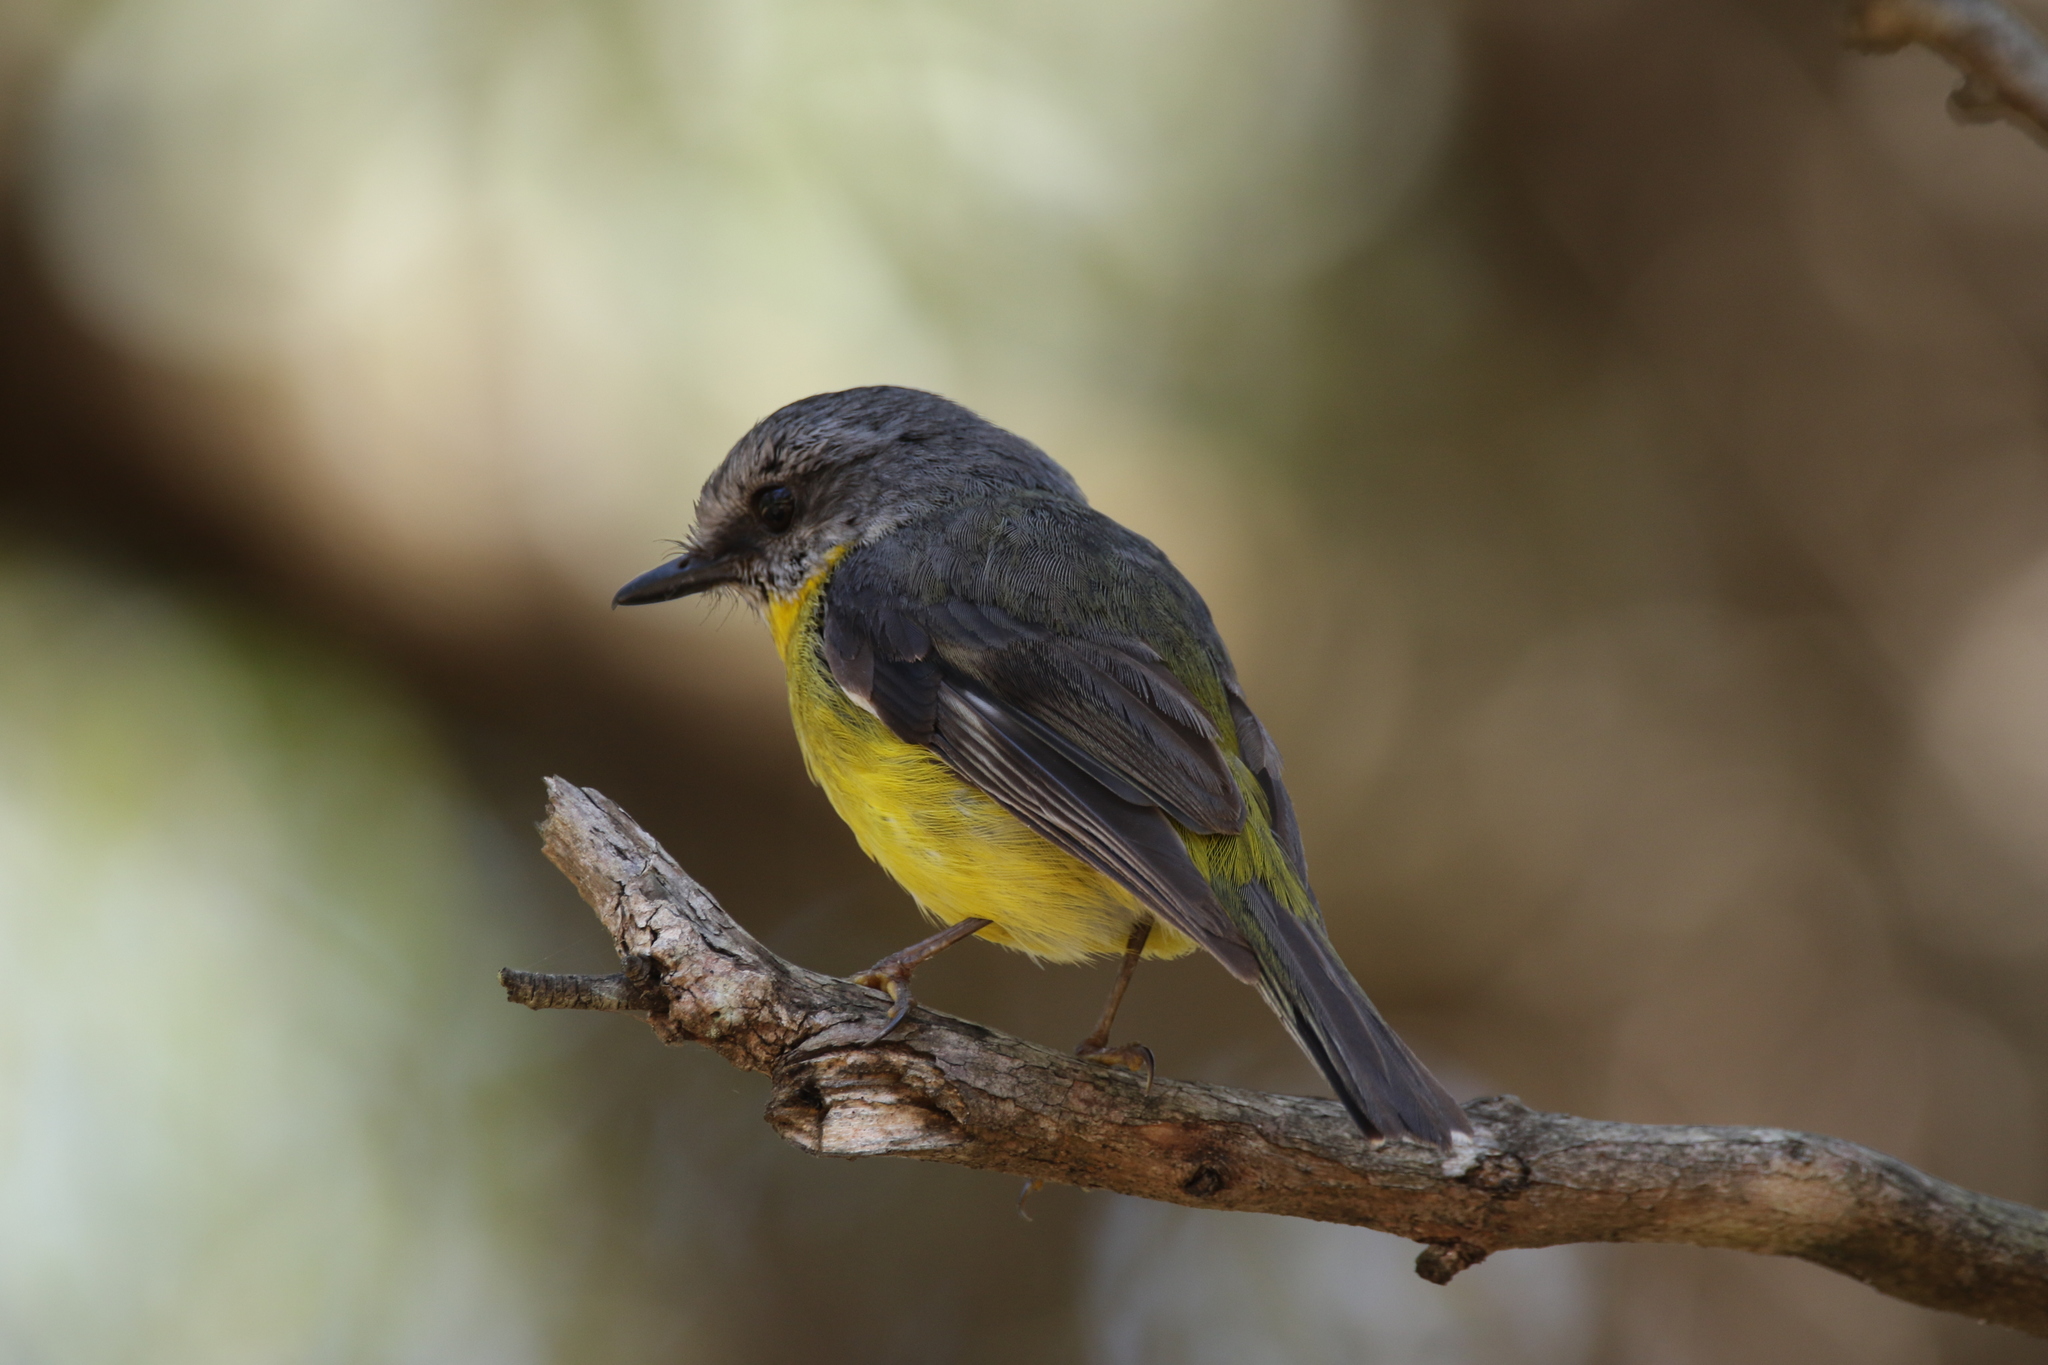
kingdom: Animalia
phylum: Chordata
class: Aves
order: Passeriformes
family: Petroicidae
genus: Eopsaltria
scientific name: Eopsaltria australis
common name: Eastern yellow robin
